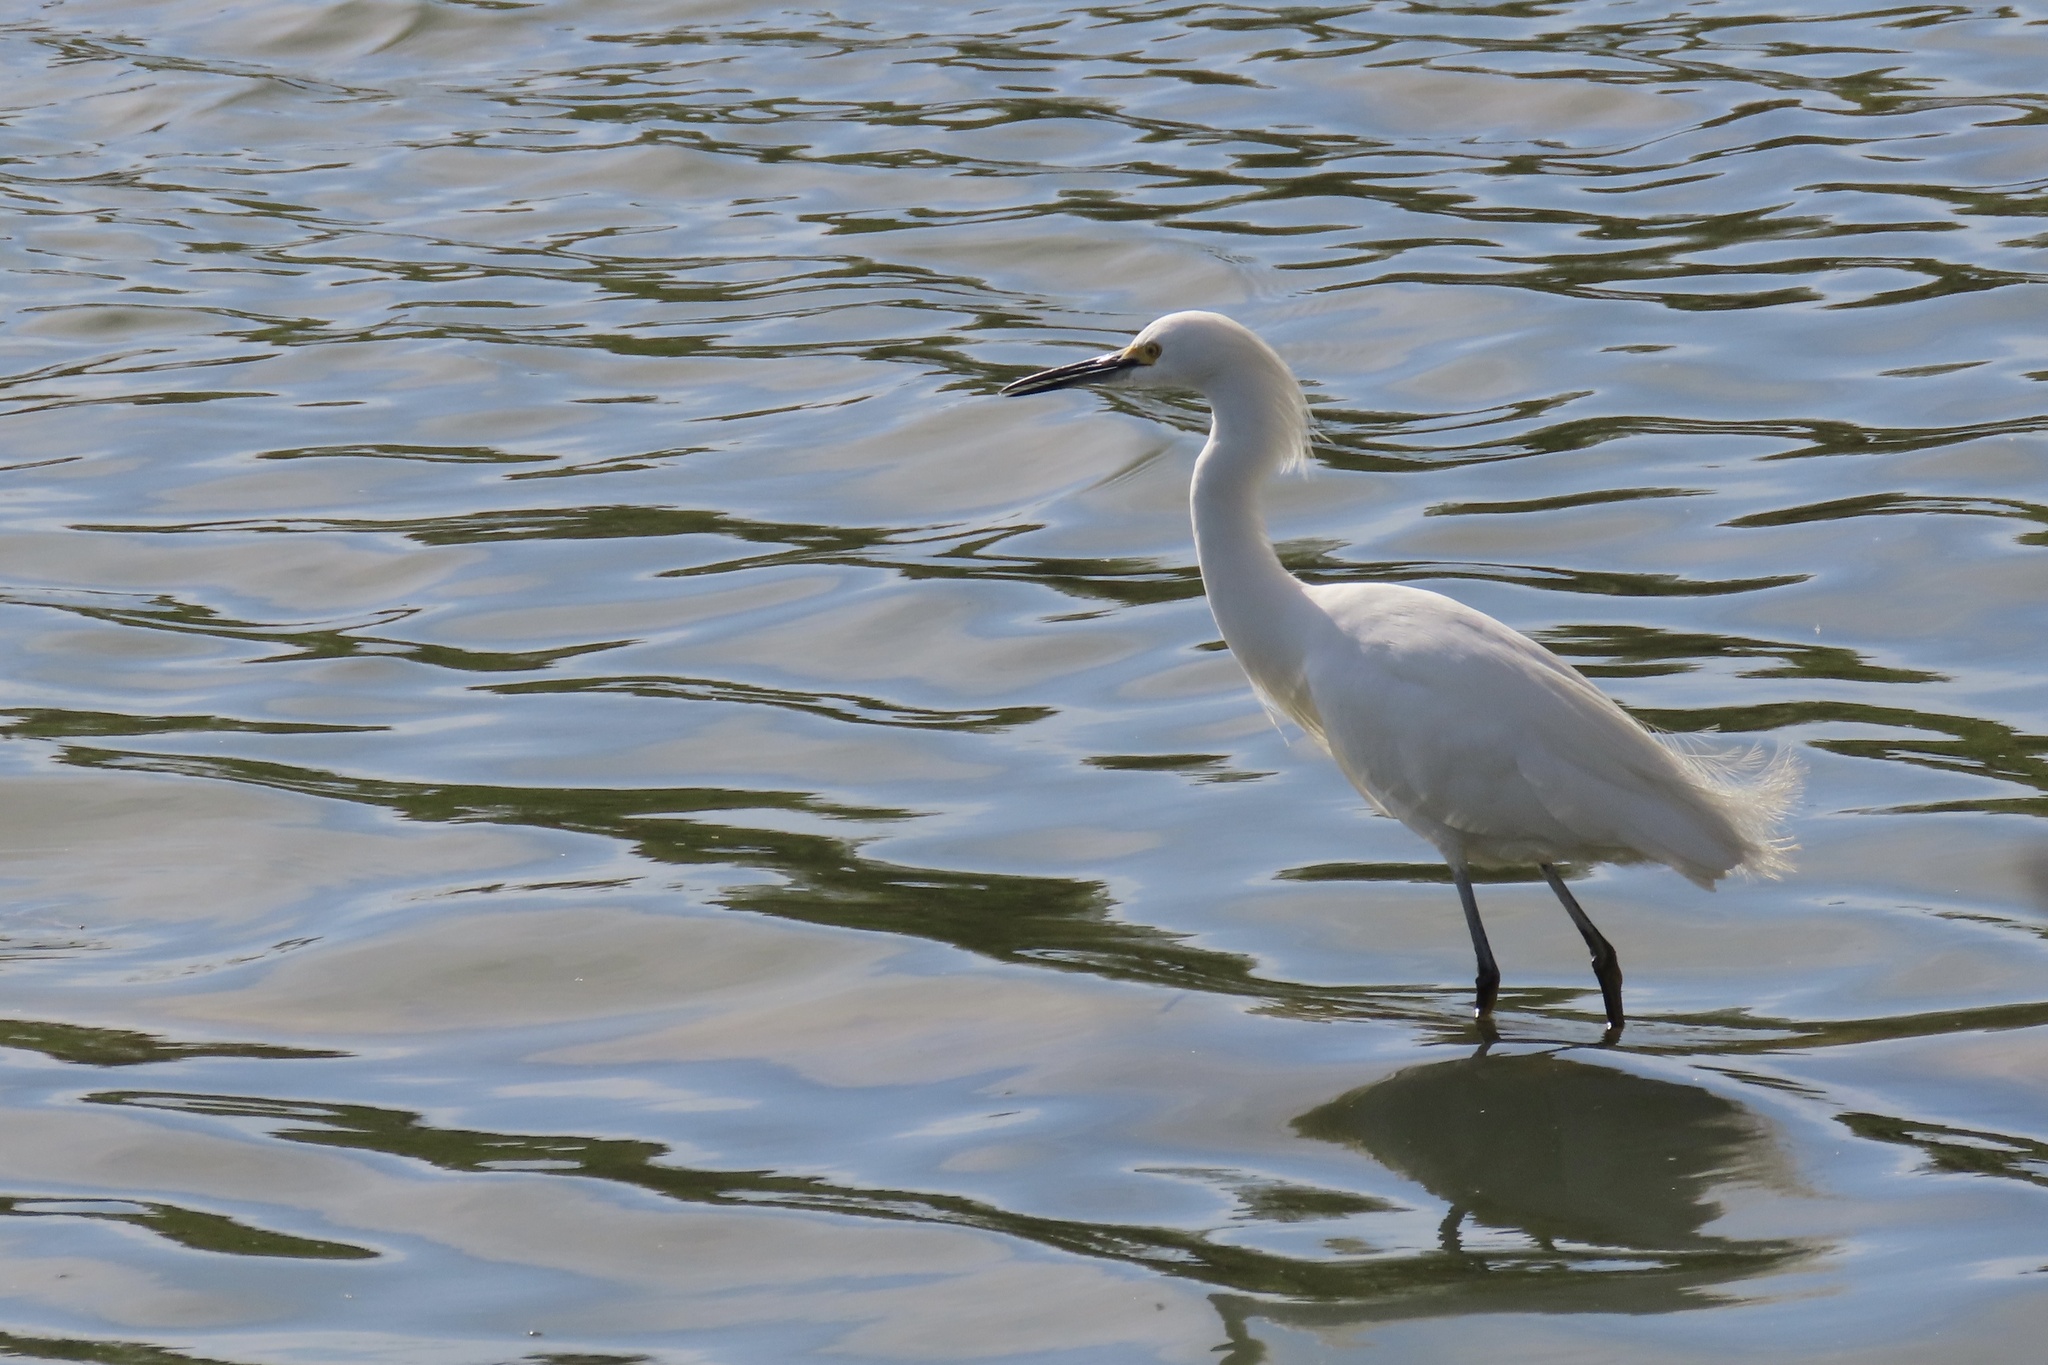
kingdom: Animalia
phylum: Chordata
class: Aves
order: Pelecaniformes
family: Ardeidae
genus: Egretta
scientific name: Egretta thula
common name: Snowy egret
